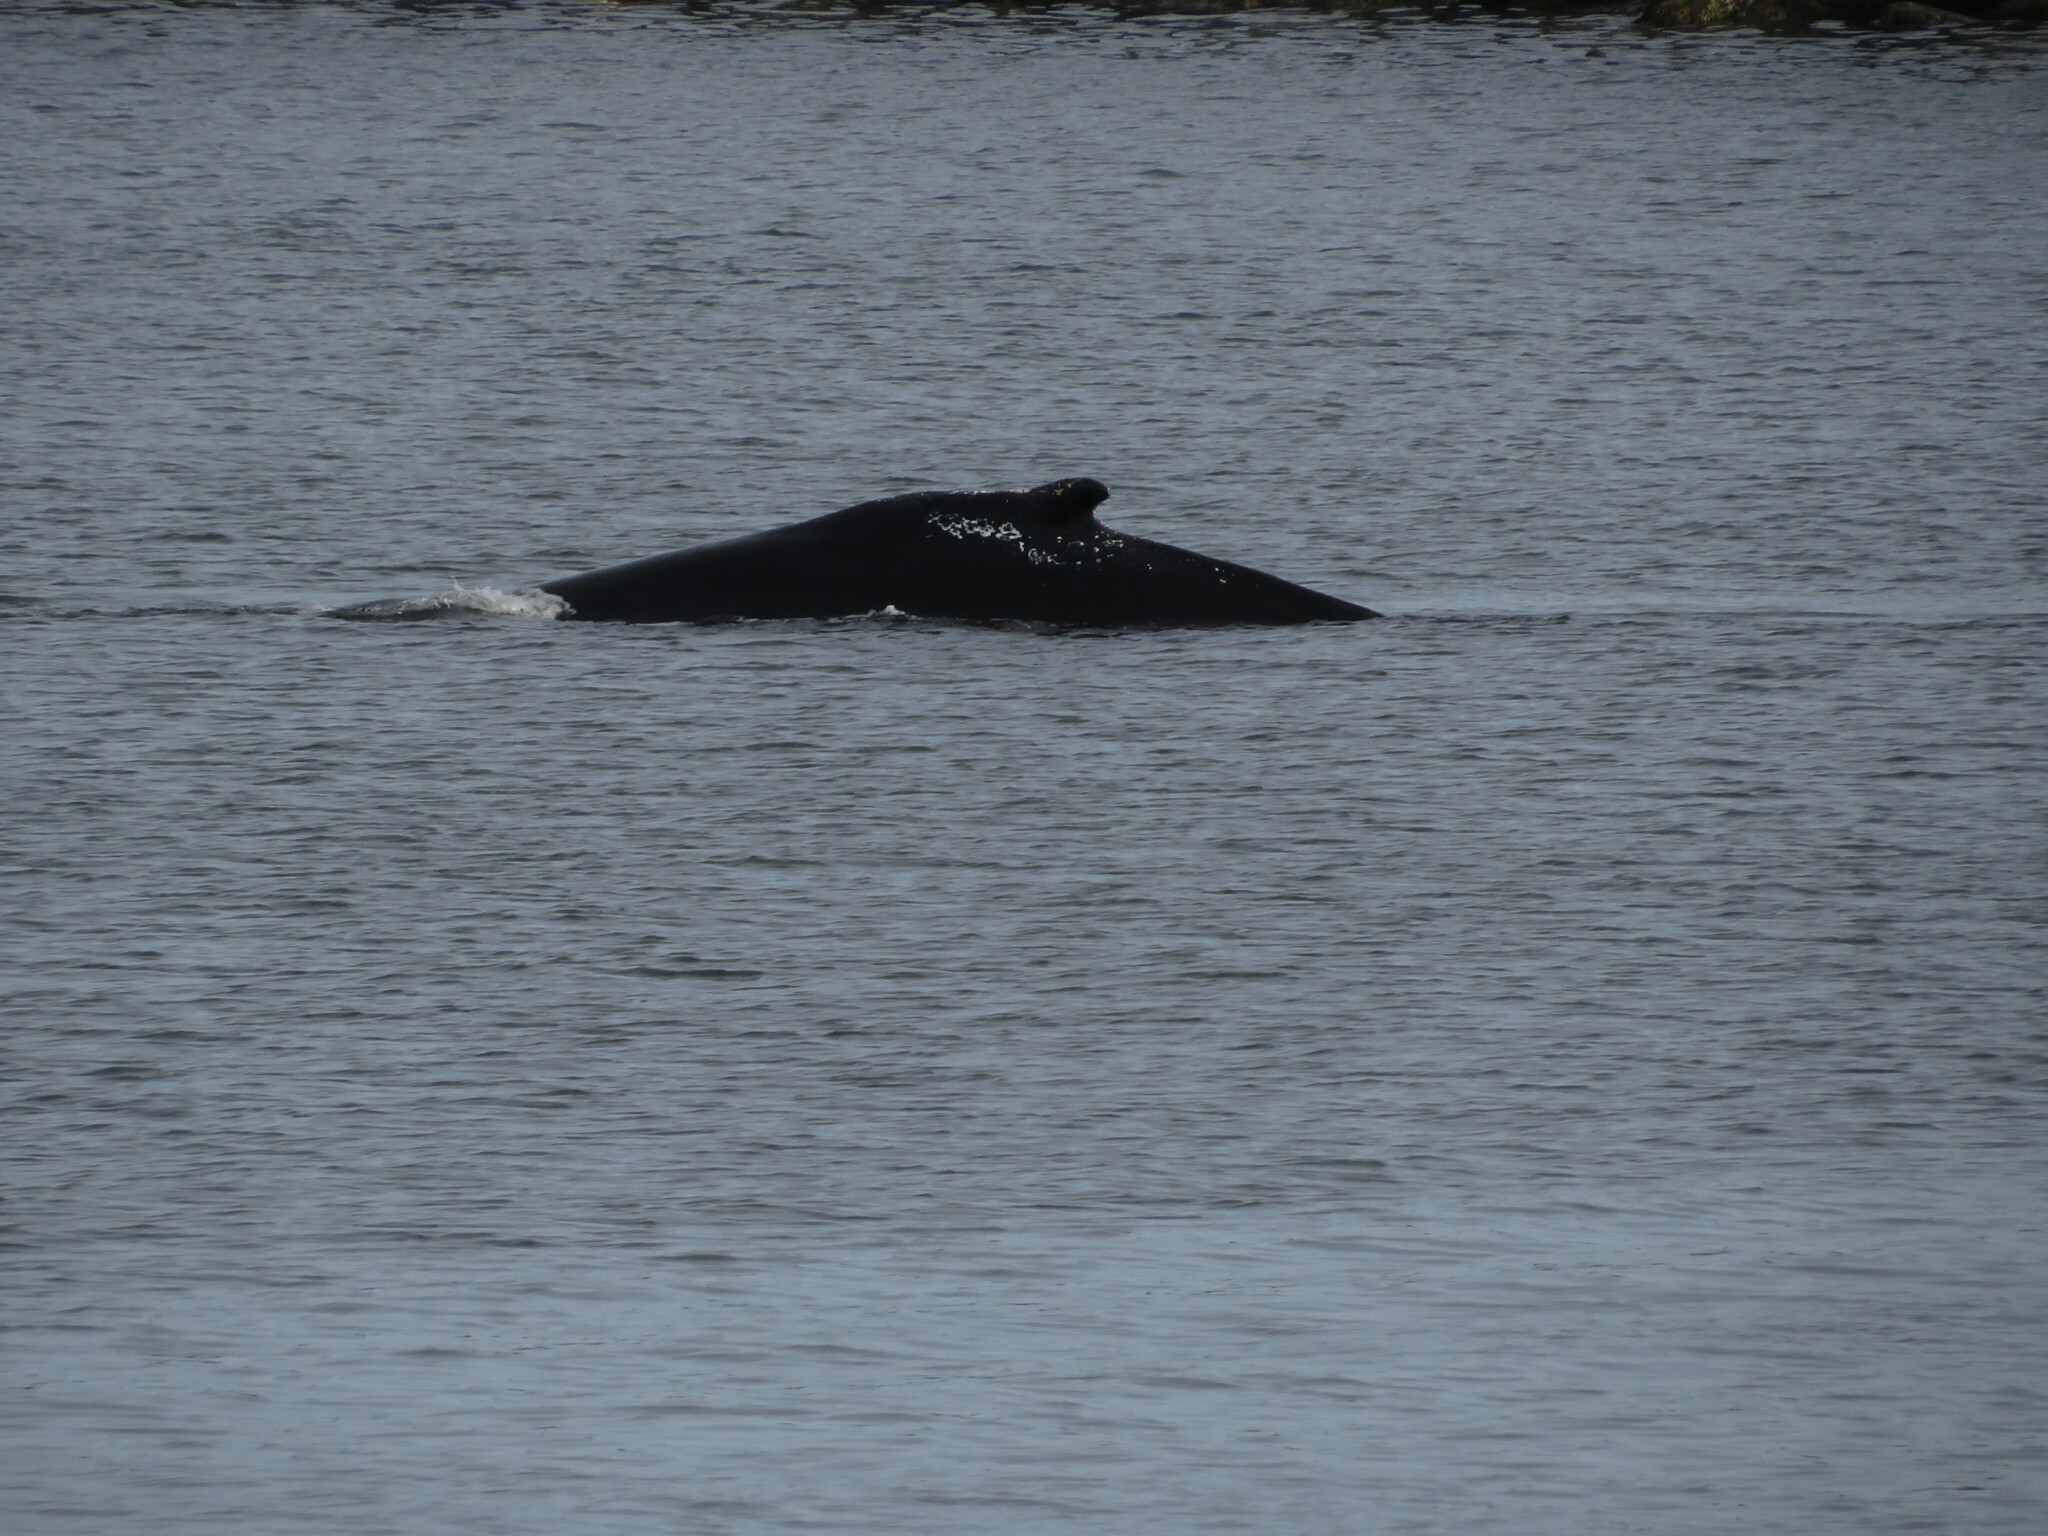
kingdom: Animalia
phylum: Chordata
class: Mammalia
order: Cetacea
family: Balaenopteridae
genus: Megaptera
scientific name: Megaptera novaeangliae
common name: Humpback whale
